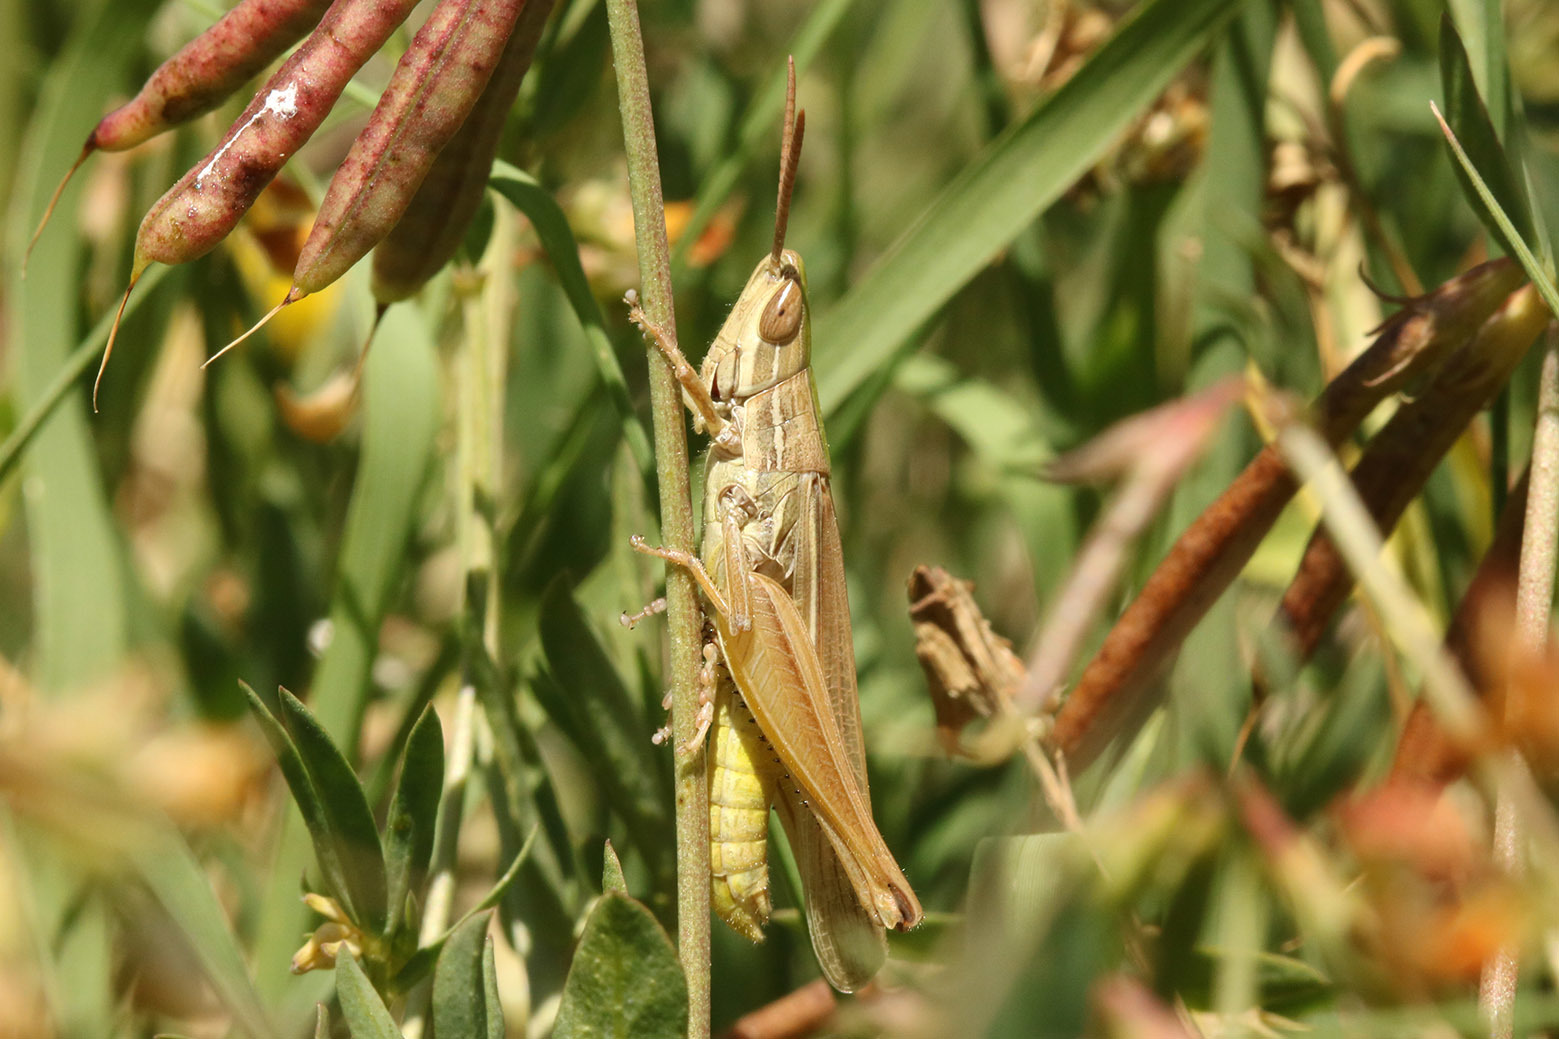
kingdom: Animalia
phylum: Arthropoda
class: Insecta
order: Orthoptera
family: Acrididae
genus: Sinipta
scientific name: Sinipta dalmani
